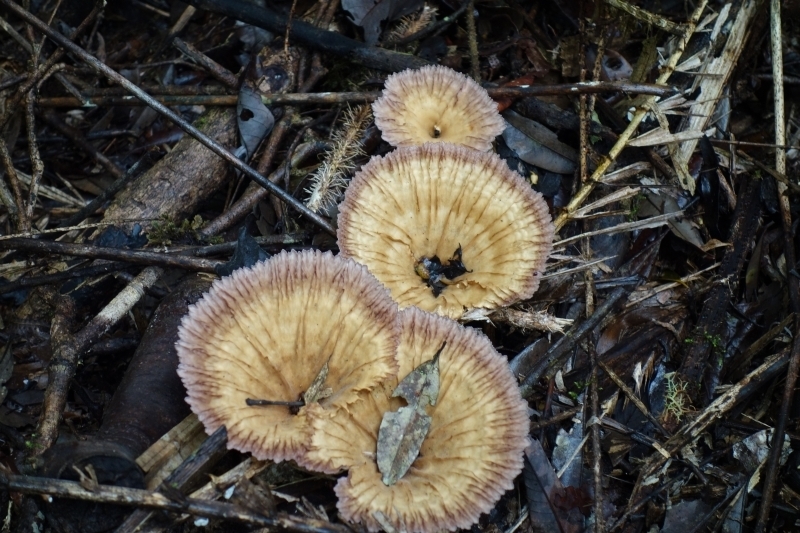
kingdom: Fungi
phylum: Basidiomycota
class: Agaricomycetes
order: Polyporales
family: Panaceae
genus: Cymatoderma
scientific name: Cymatoderma elegans
